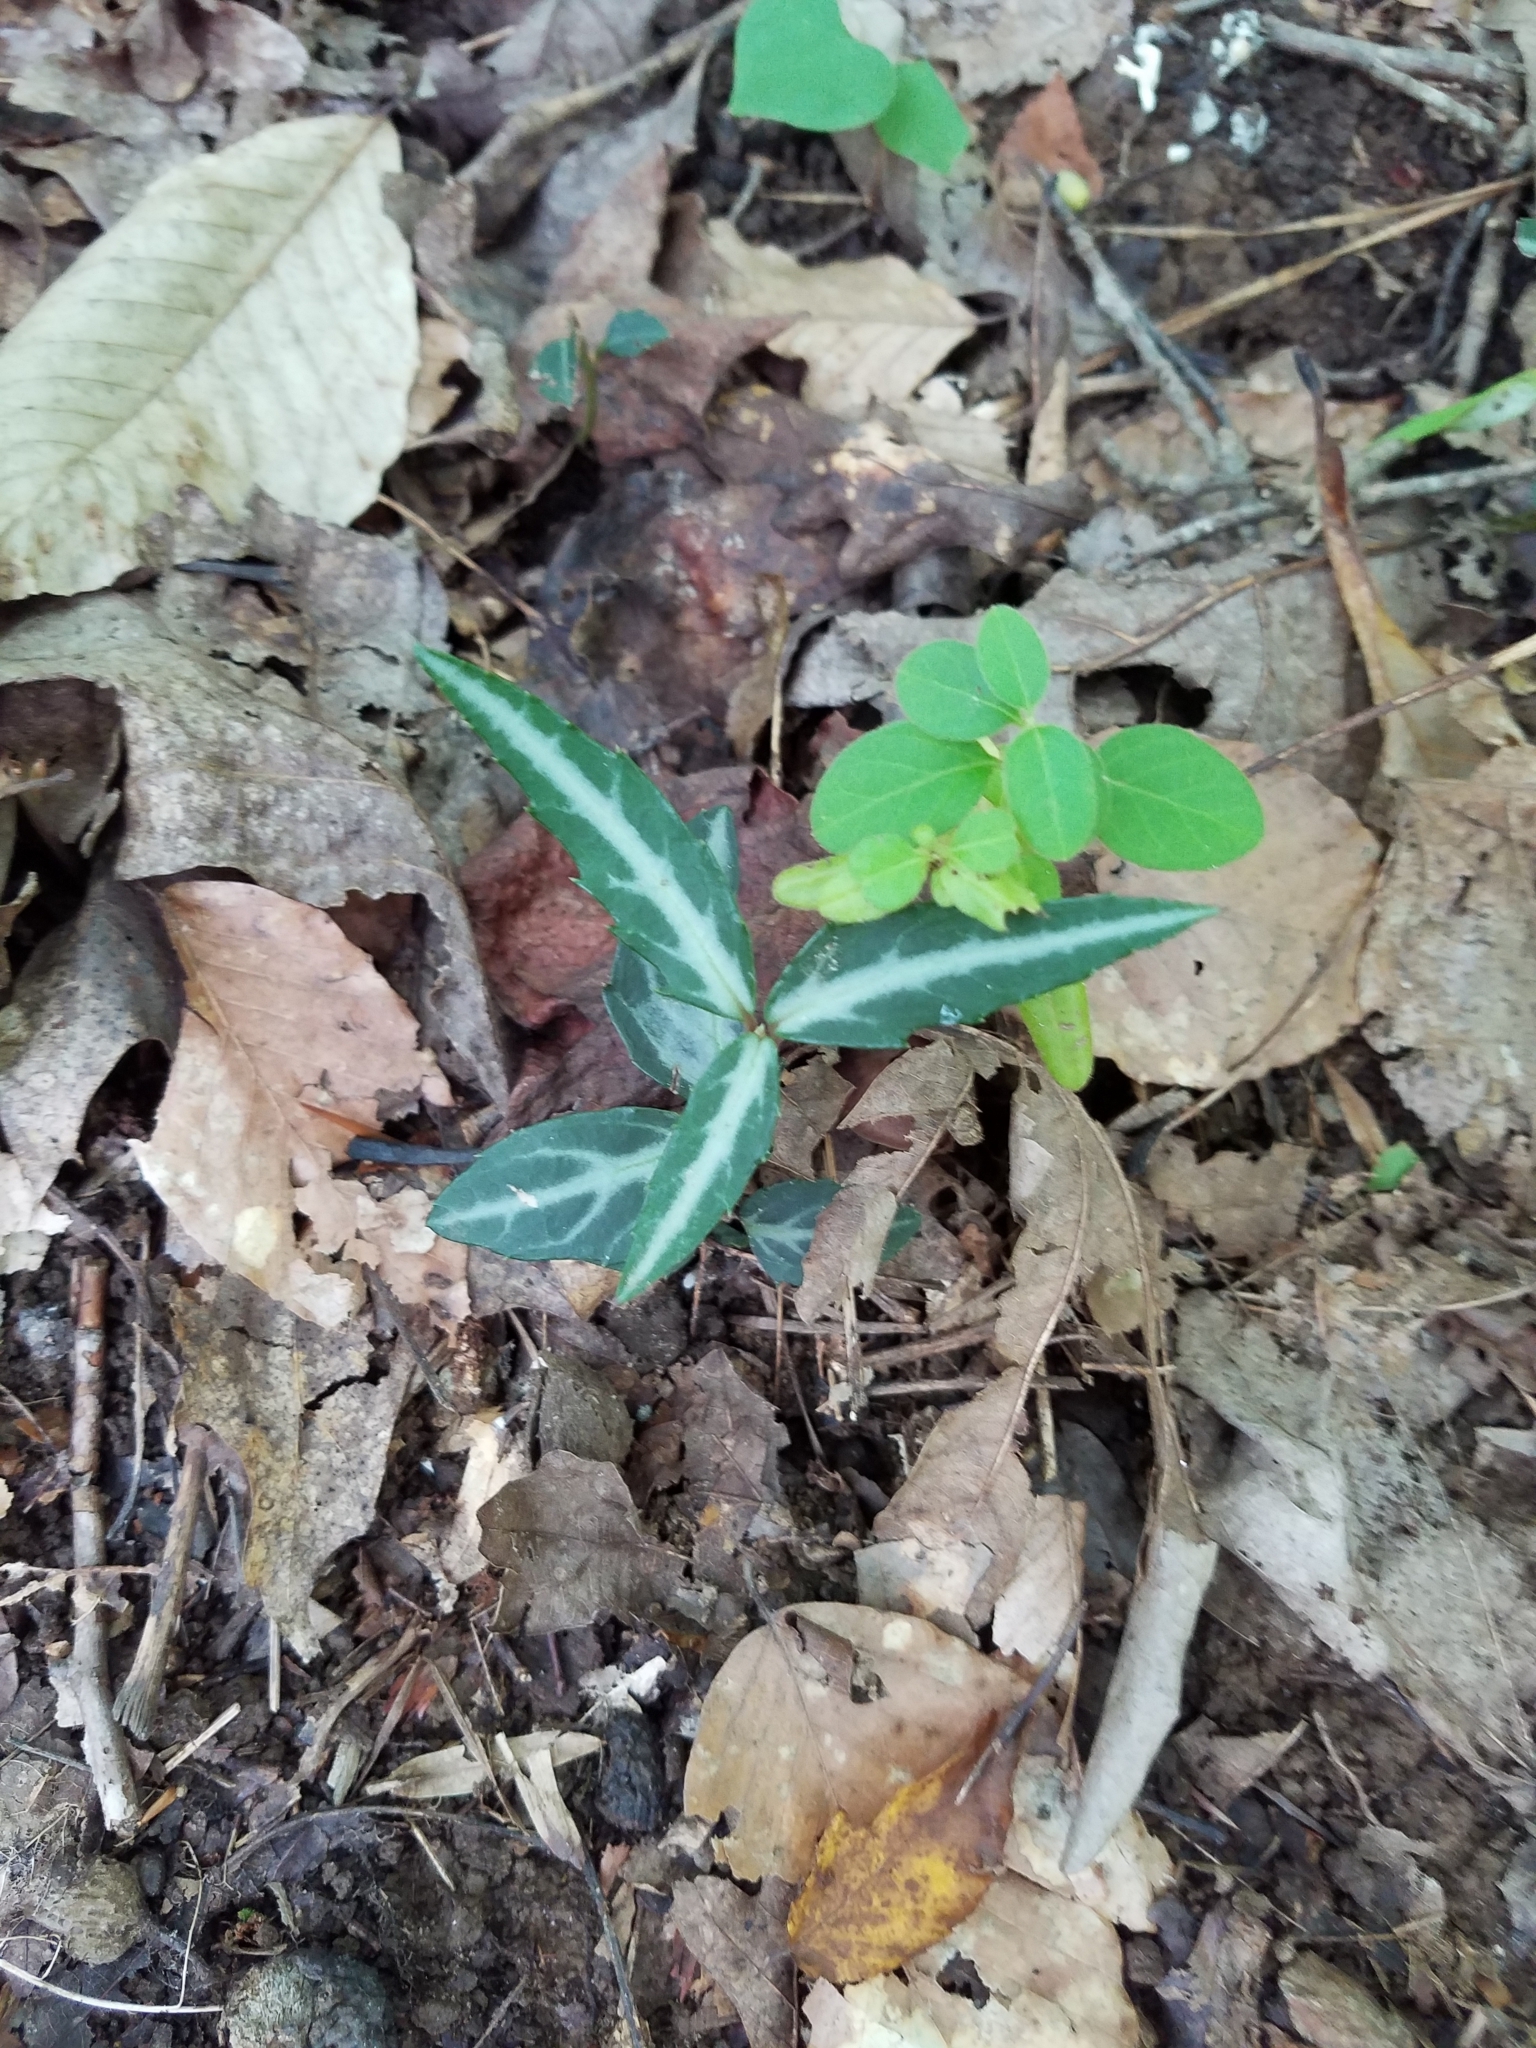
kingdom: Plantae
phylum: Tracheophyta
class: Magnoliopsida
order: Ericales
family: Ericaceae
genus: Chimaphila
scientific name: Chimaphila maculata
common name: Spotted pipsissewa
